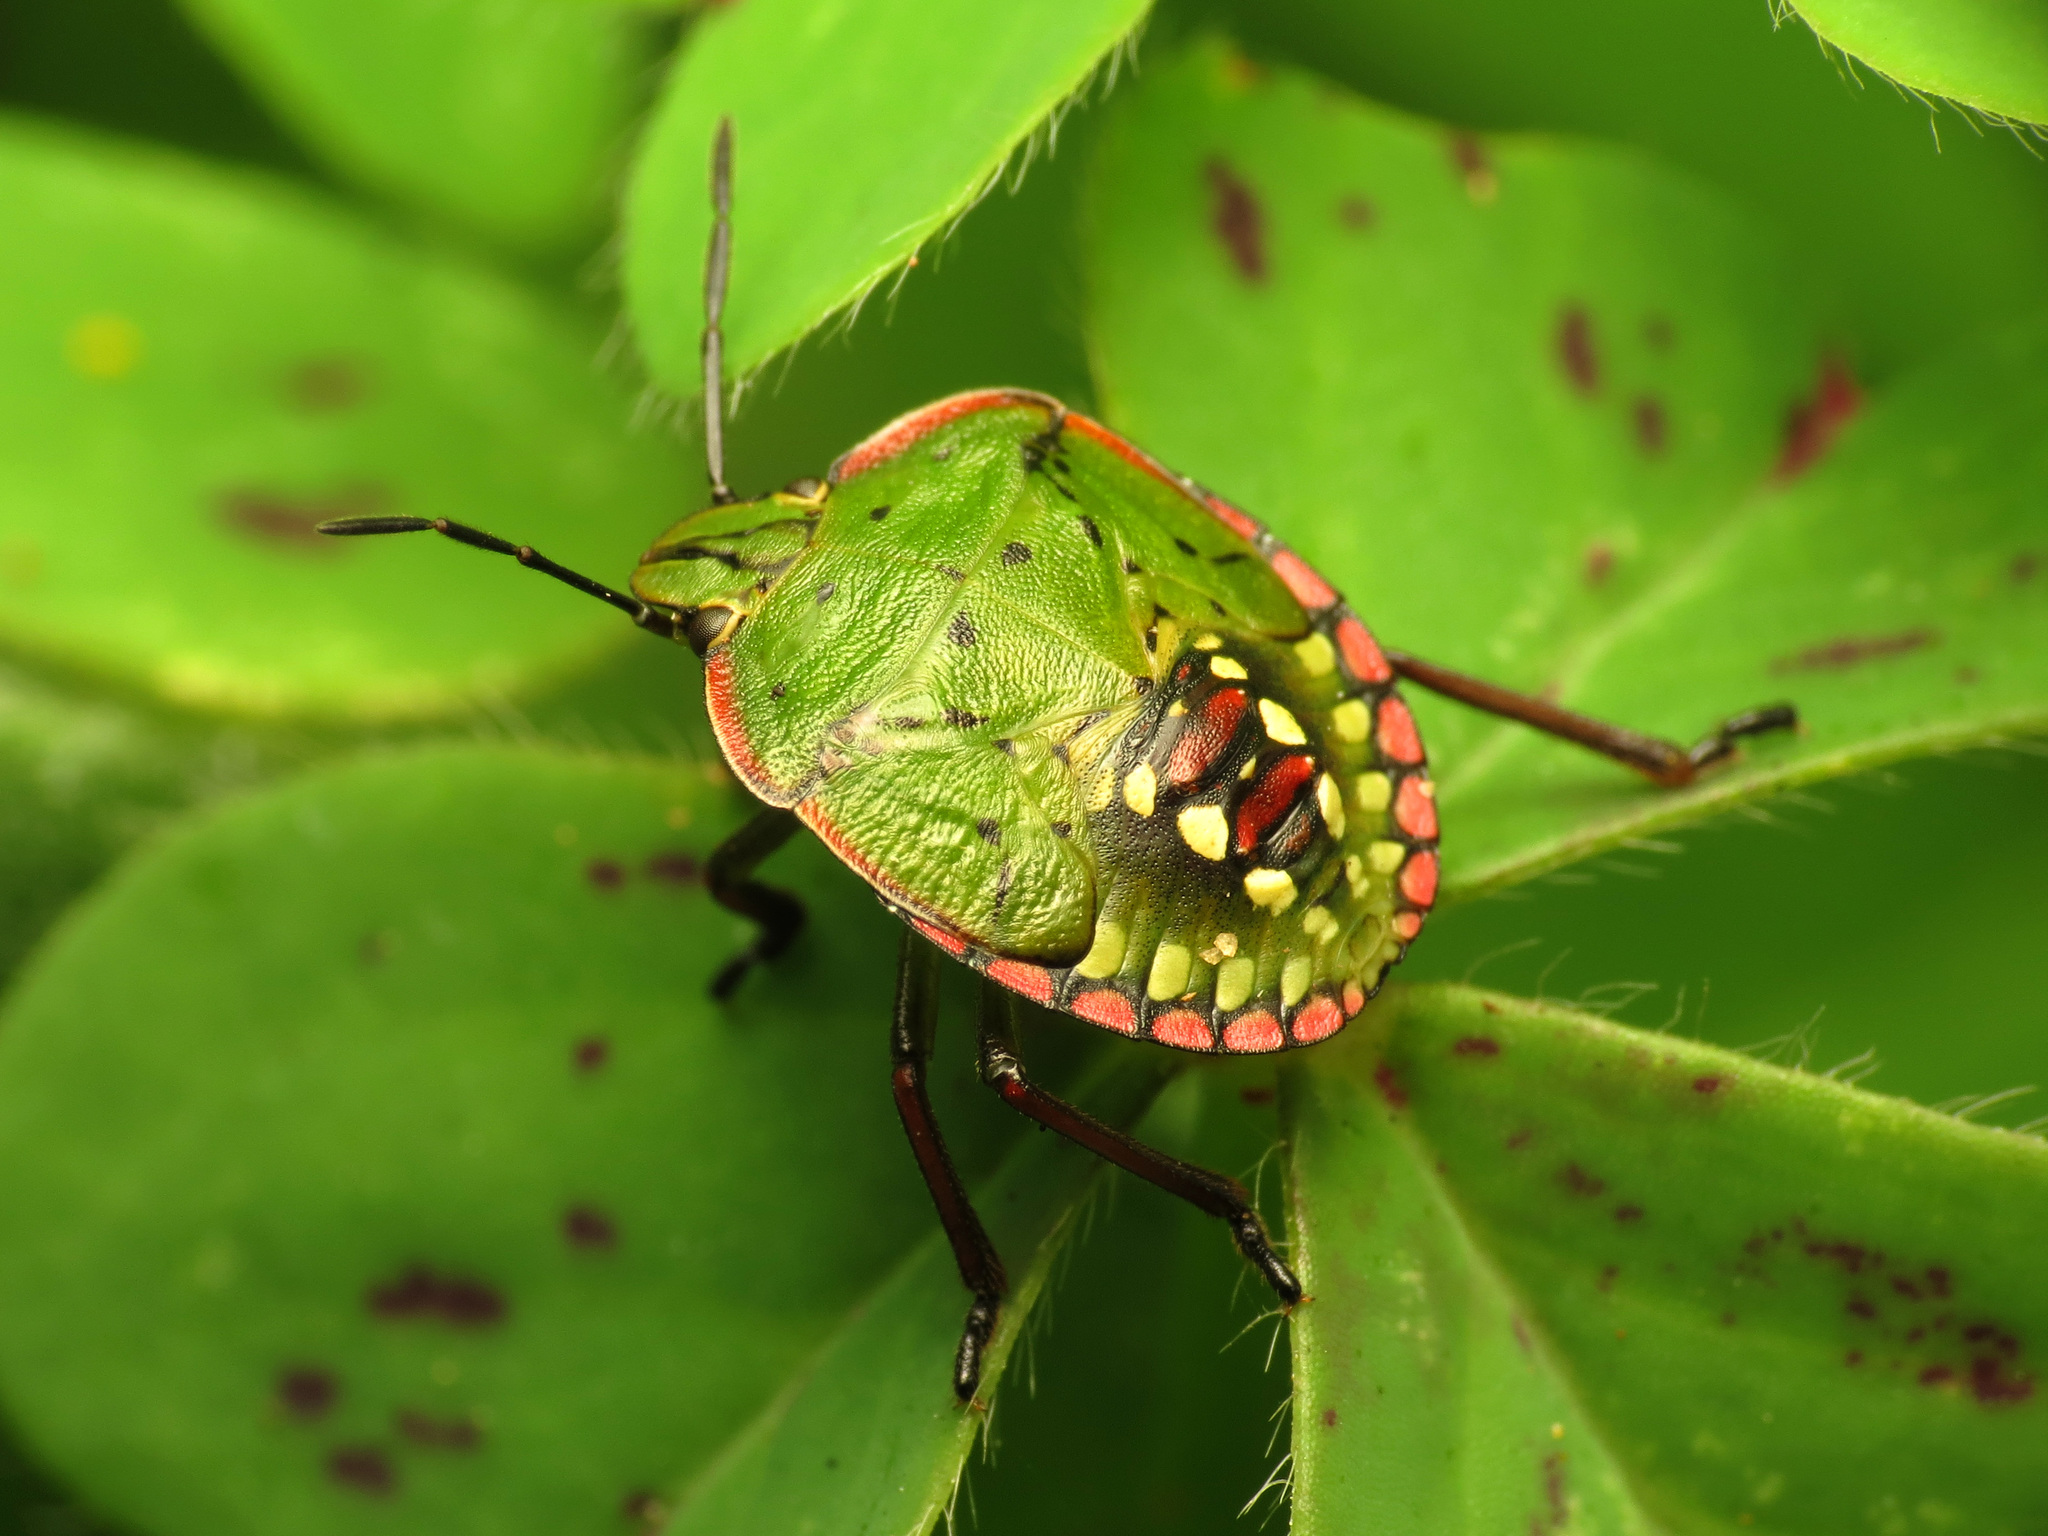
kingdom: Animalia
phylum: Arthropoda
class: Insecta
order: Hemiptera
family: Pentatomidae
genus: Nezara
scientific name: Nezara viridula
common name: Southern green stink bug
